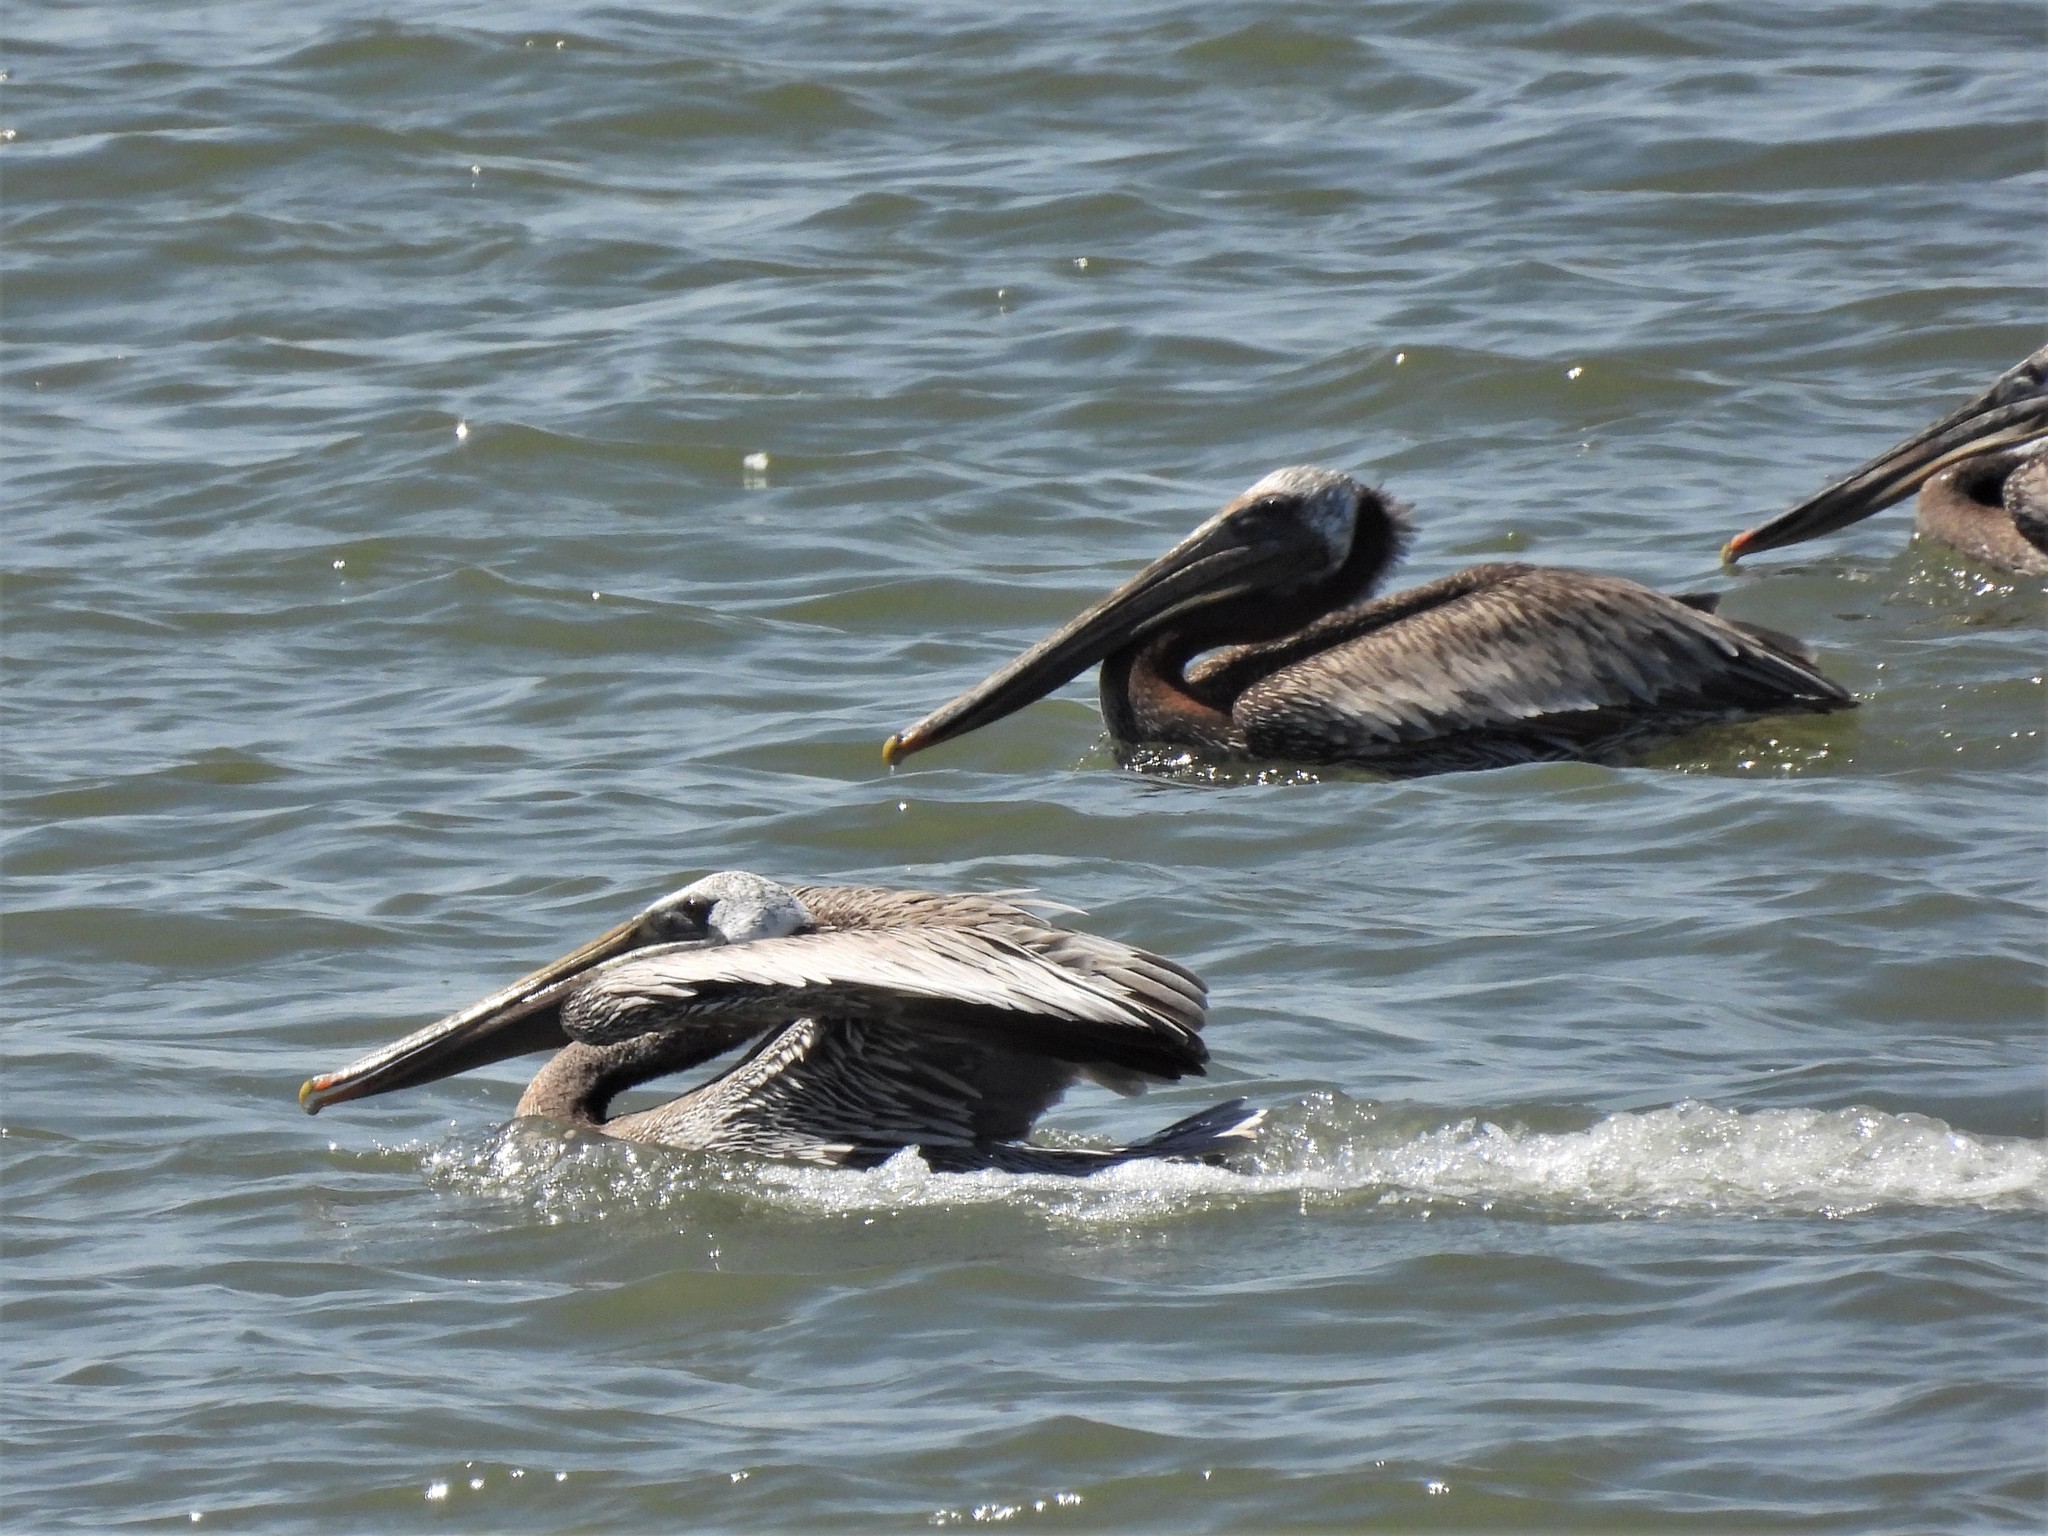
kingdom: Animalia
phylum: Chordata
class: Aves
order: Pelecaniformes
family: Pelecanidae
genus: Pelecanus
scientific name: Pelecanus occidentalis
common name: Brown pelican
